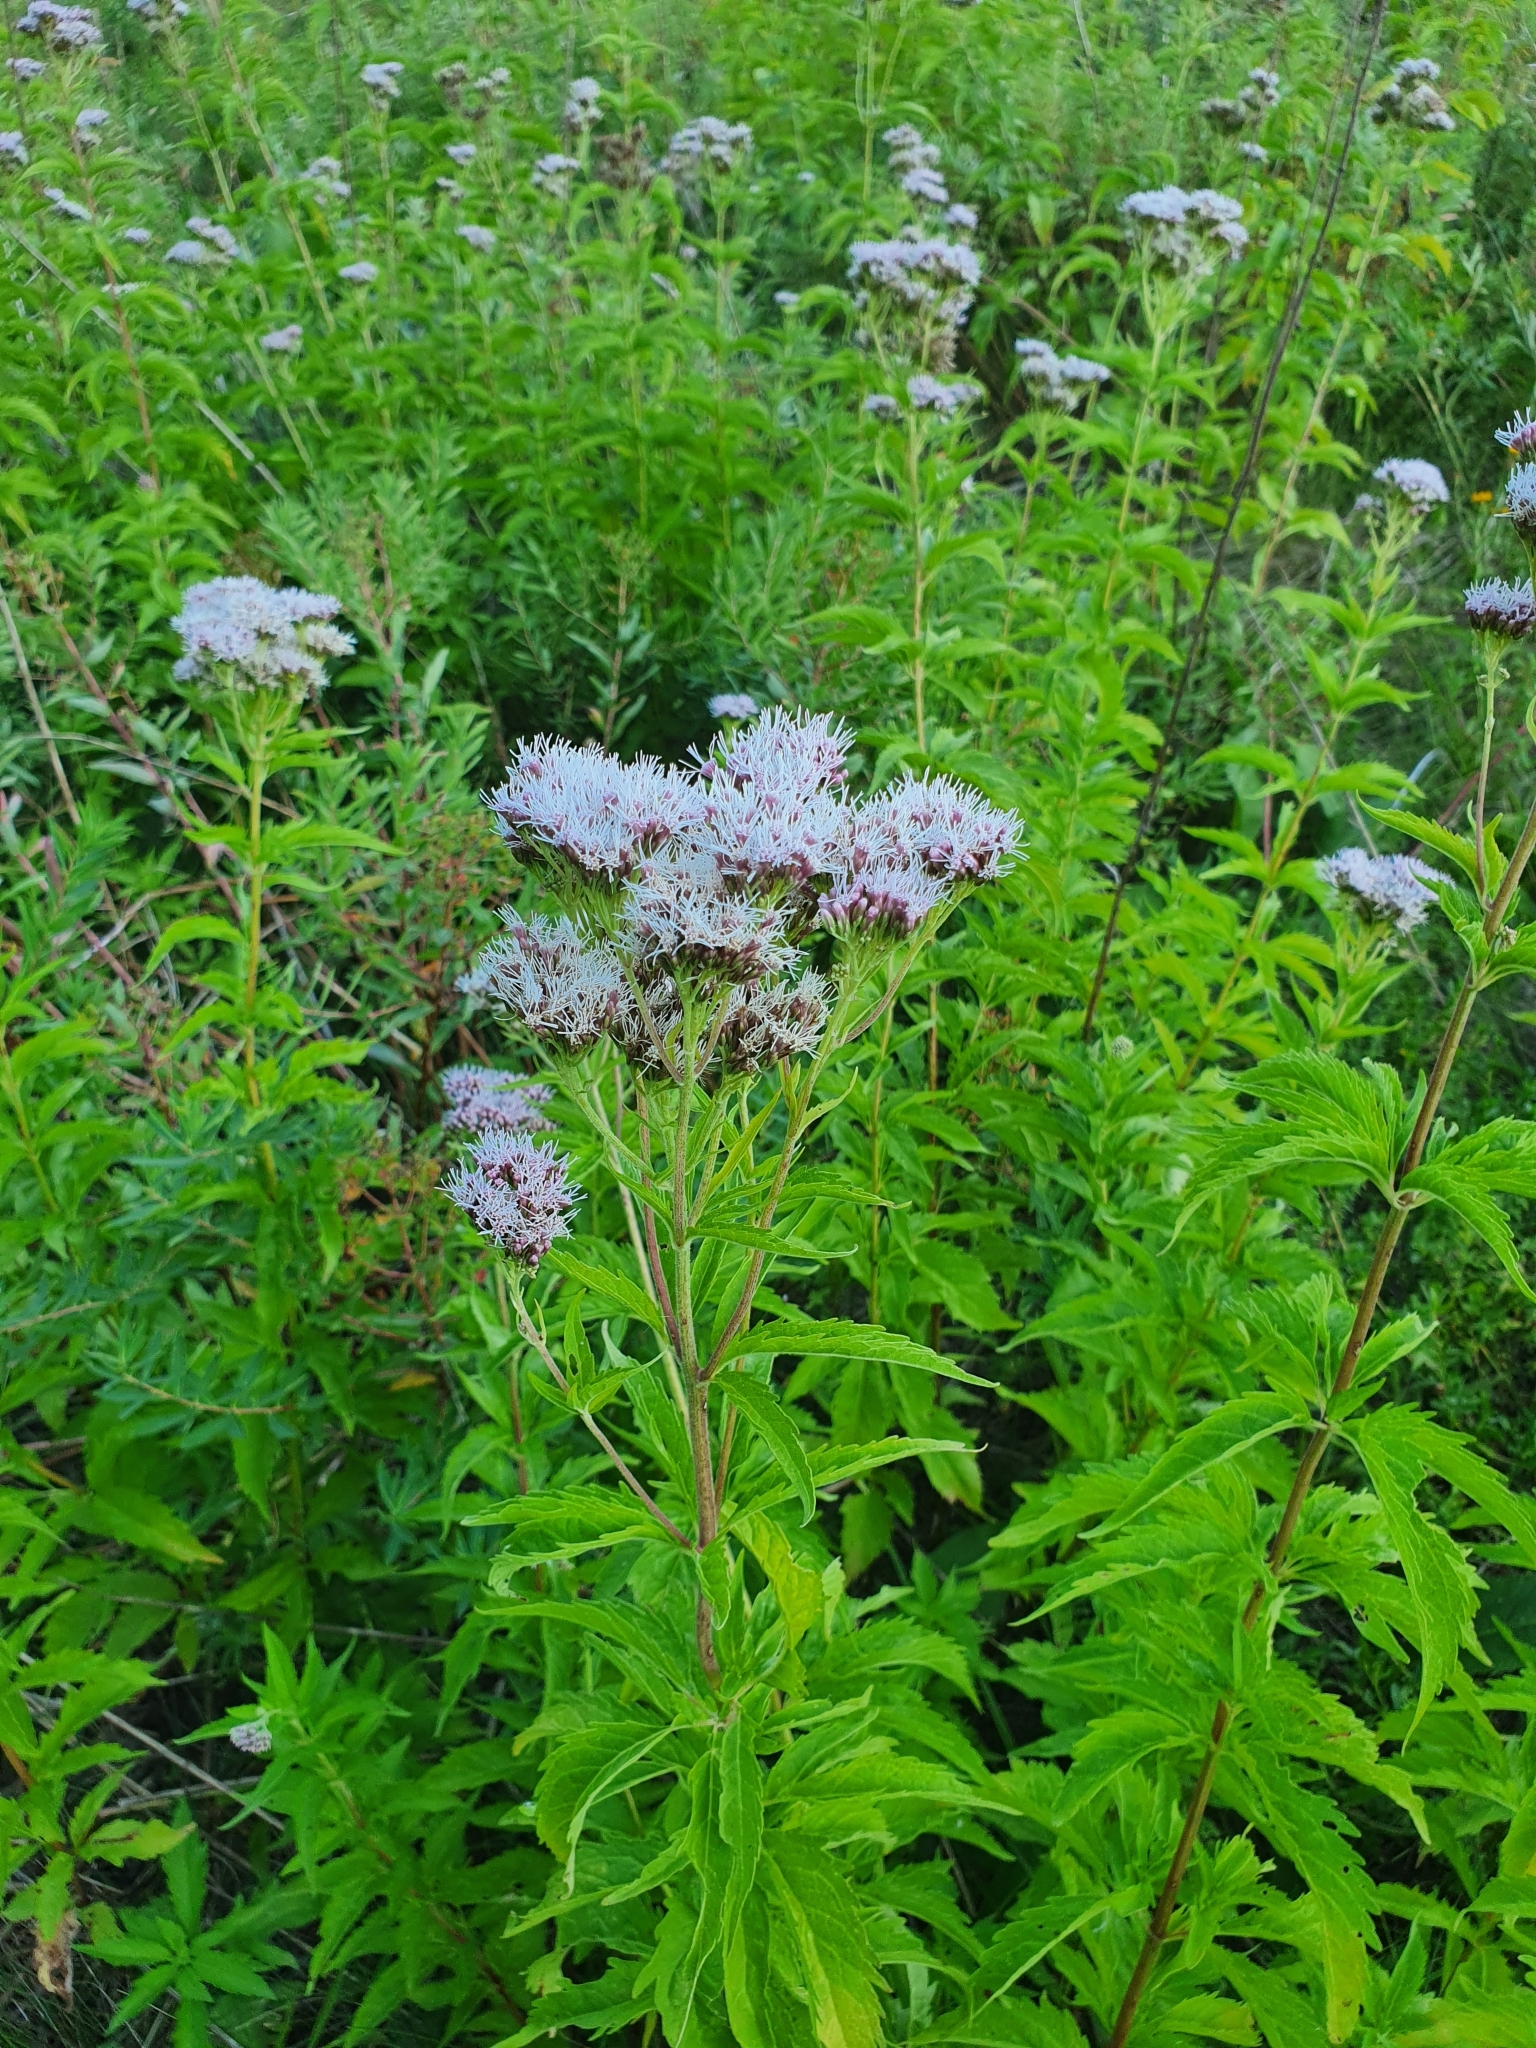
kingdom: Plantae
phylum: Tracheophyta
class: Magnoliopsida
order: Asterales
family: Asteraceae
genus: Eupatorium
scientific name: Eupatorium cannabinum
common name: Hemp-agrimony
